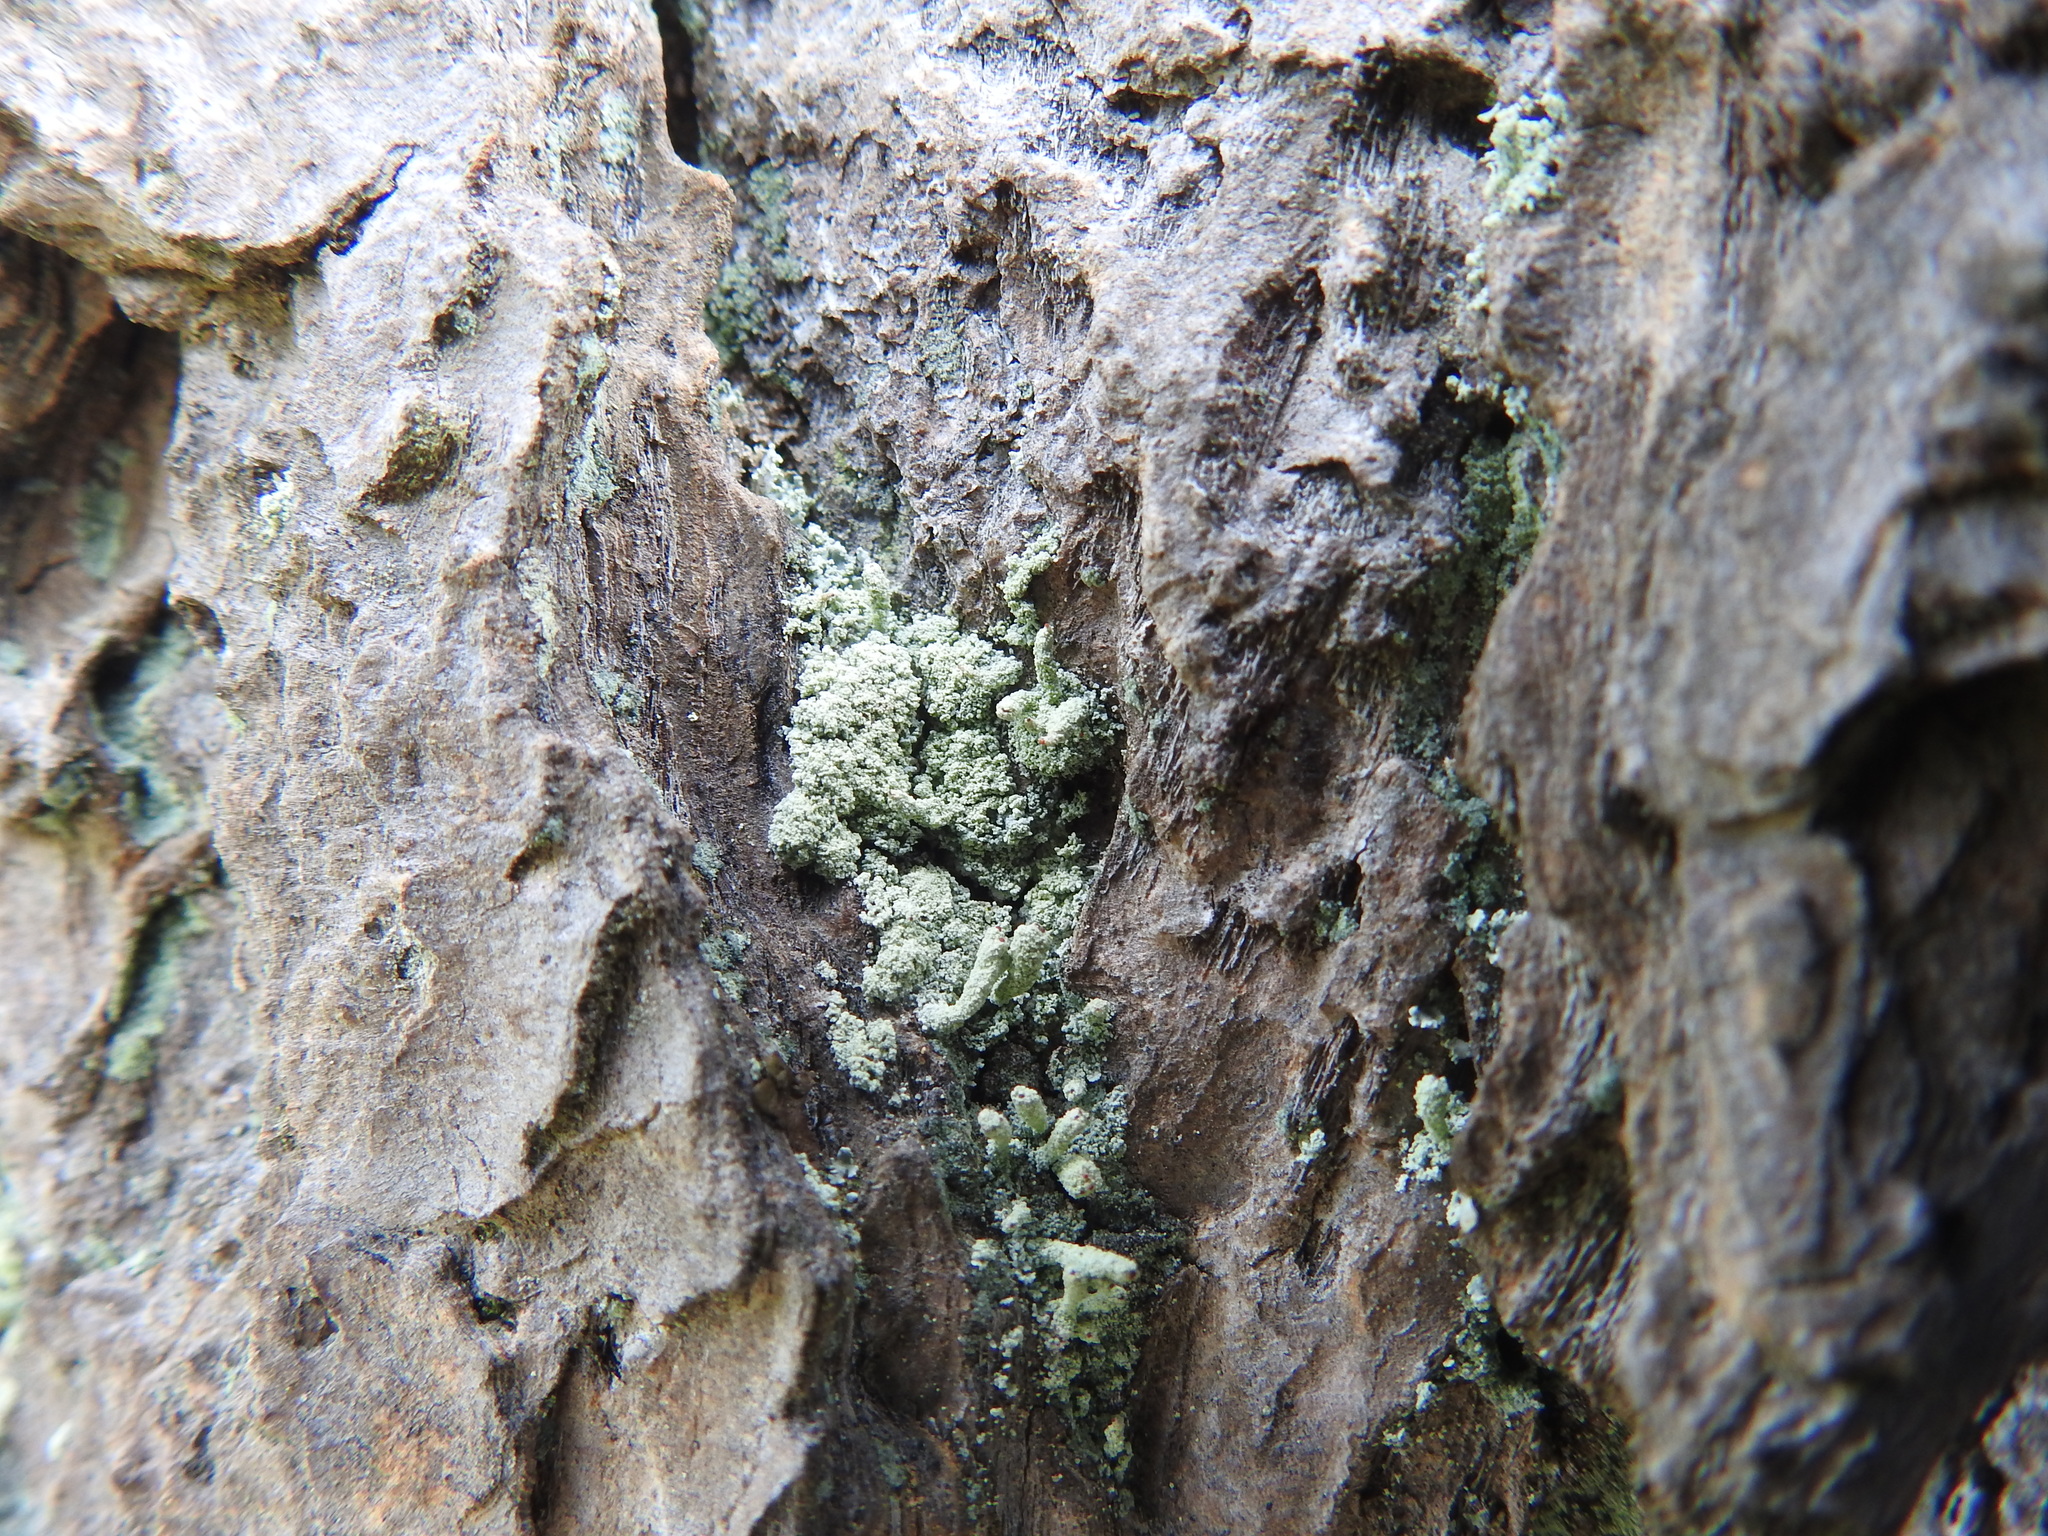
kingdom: Fungi
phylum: Ascomycota
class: Lecanoromycetes
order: Lecanorales
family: Stereocaulaceae
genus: Lepraria
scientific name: Lepraria pacifica
